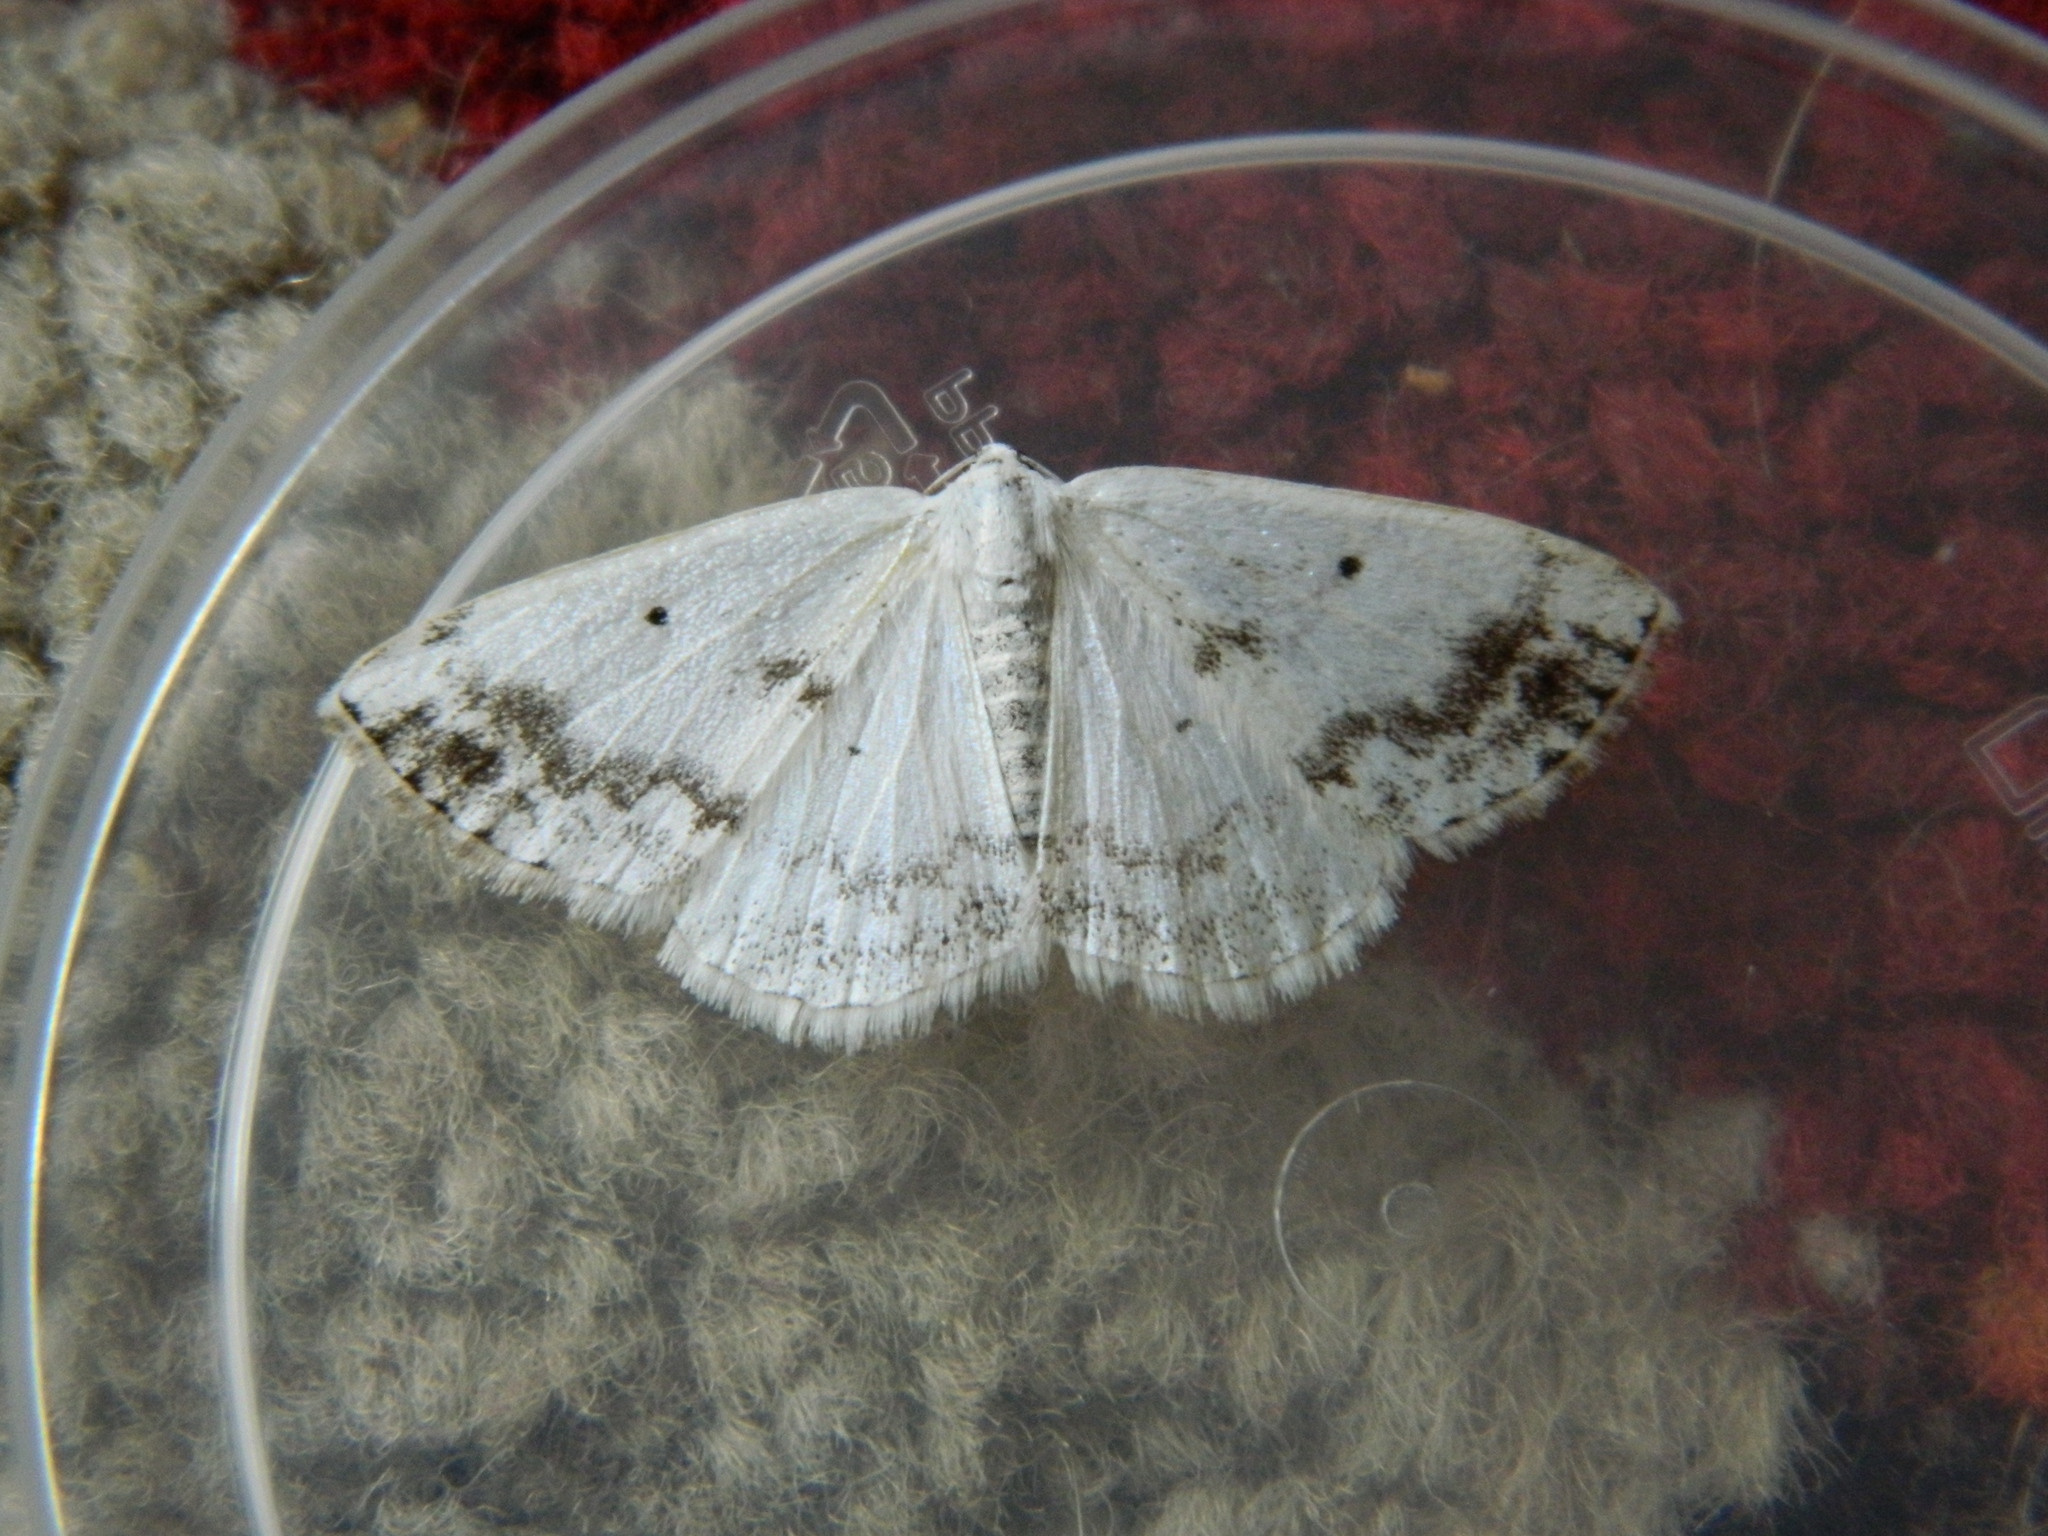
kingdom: Animalia
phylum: Arthropoda
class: Insecta
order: Lepidoptera
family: Geometridae
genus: Lomographa
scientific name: Lomographa temerata
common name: Clouded silver
